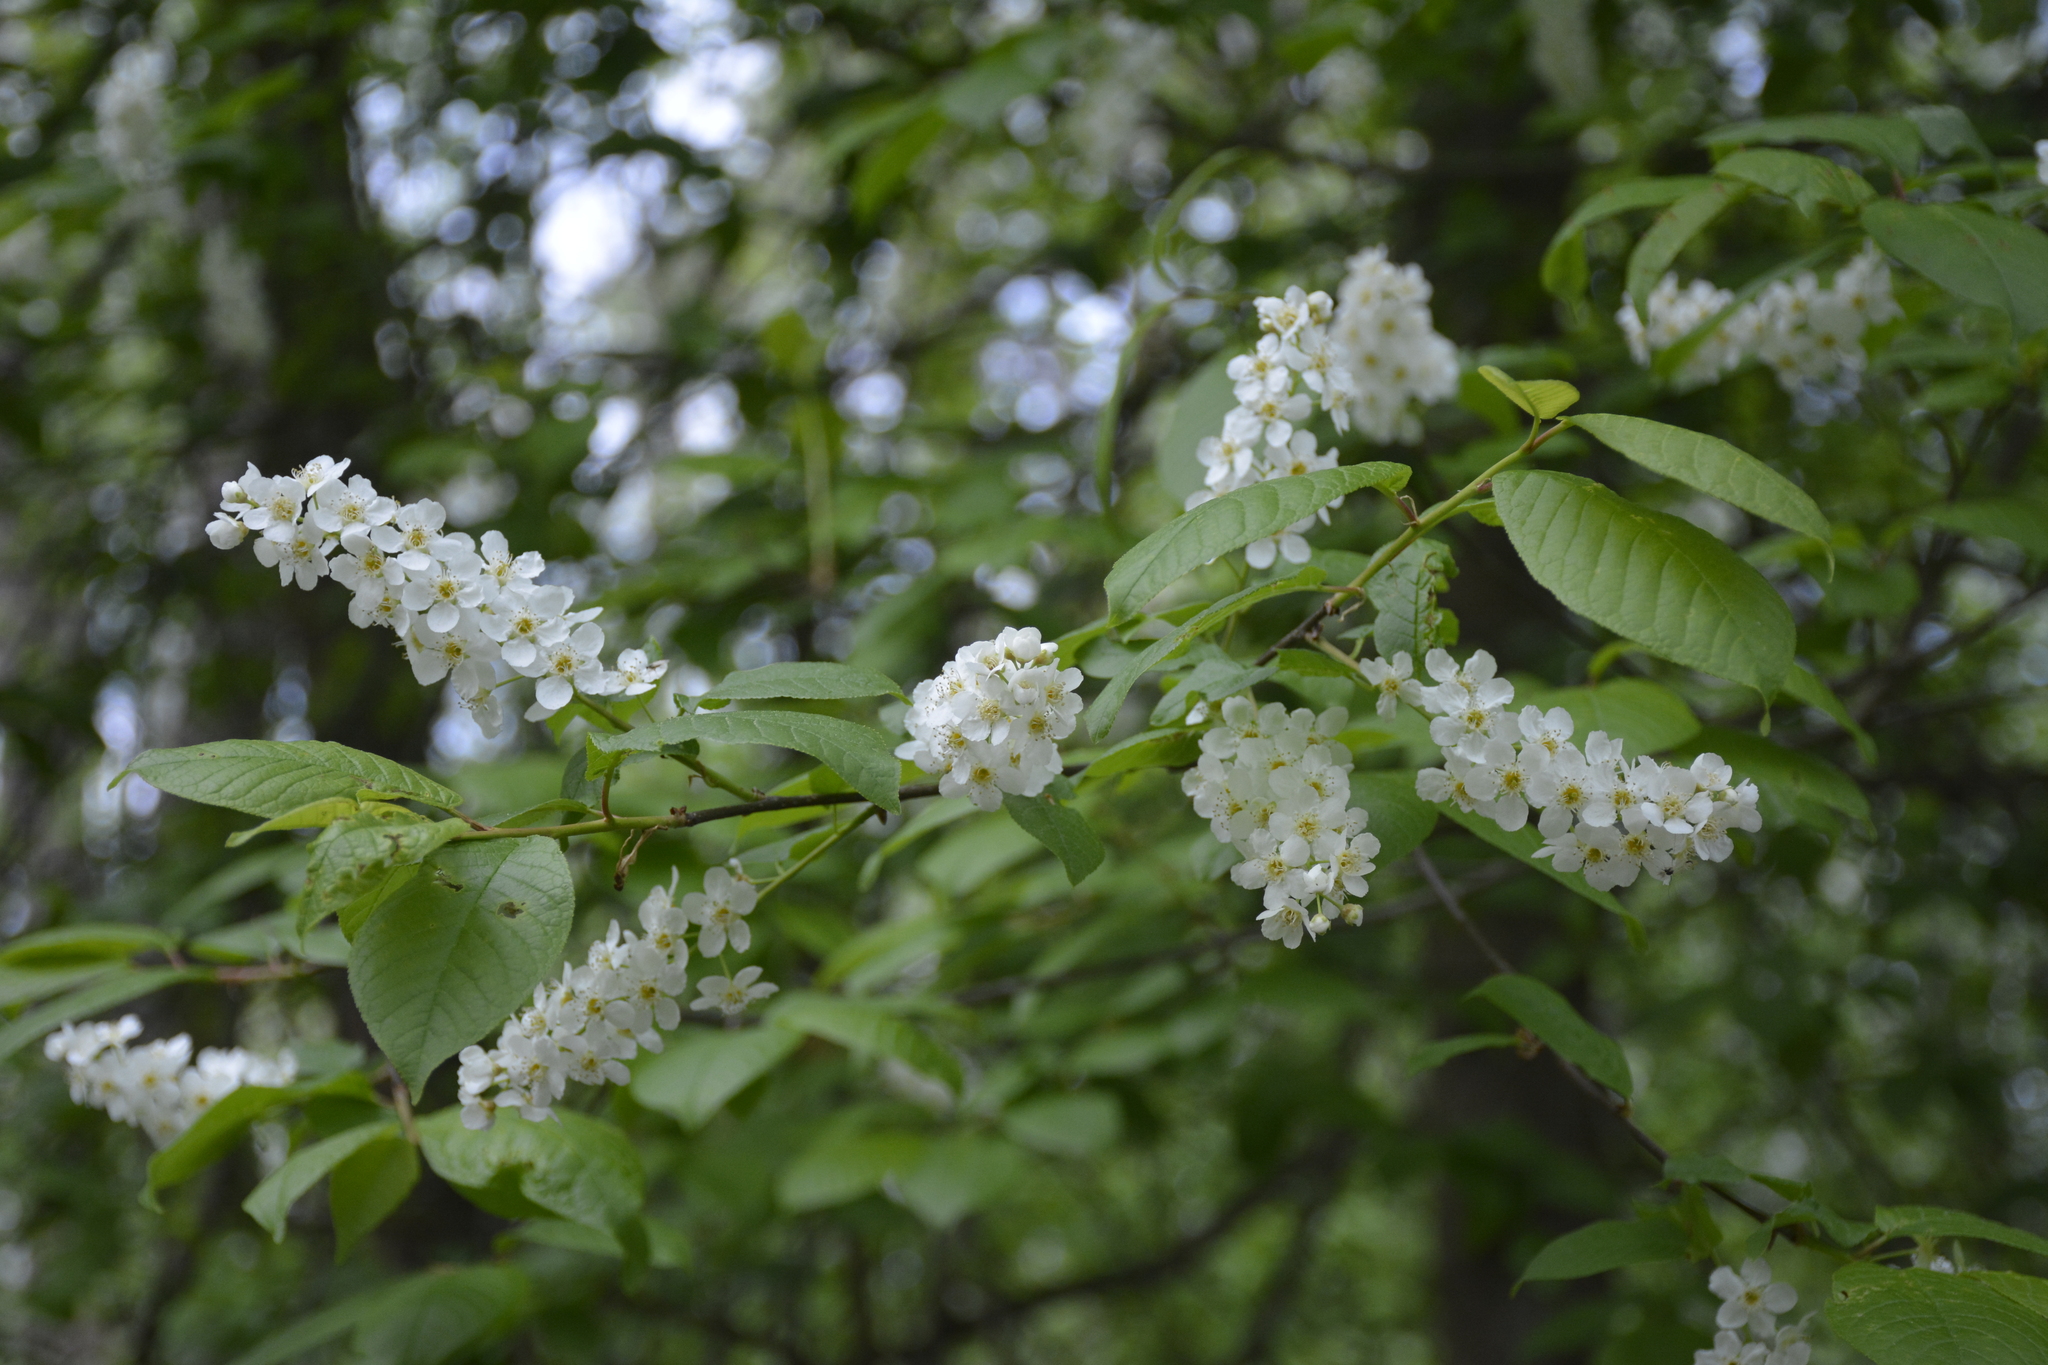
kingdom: Plantae
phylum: Tracheophyta
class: Magnoliopsida
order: Rosales
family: Rosaceae
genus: Prunus
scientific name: Prunus padus
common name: Bird cherry
